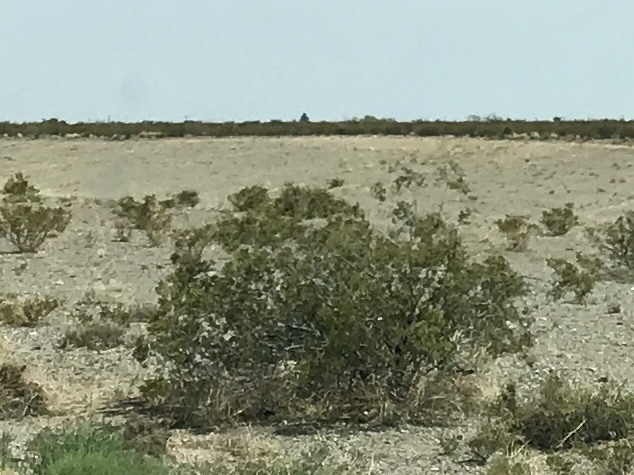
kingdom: Plantae
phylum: Tracheophyta
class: Magnoliopsida
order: Zygophyllales
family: Zygophyllaceae
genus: Larrea
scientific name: Larrea tridentata
